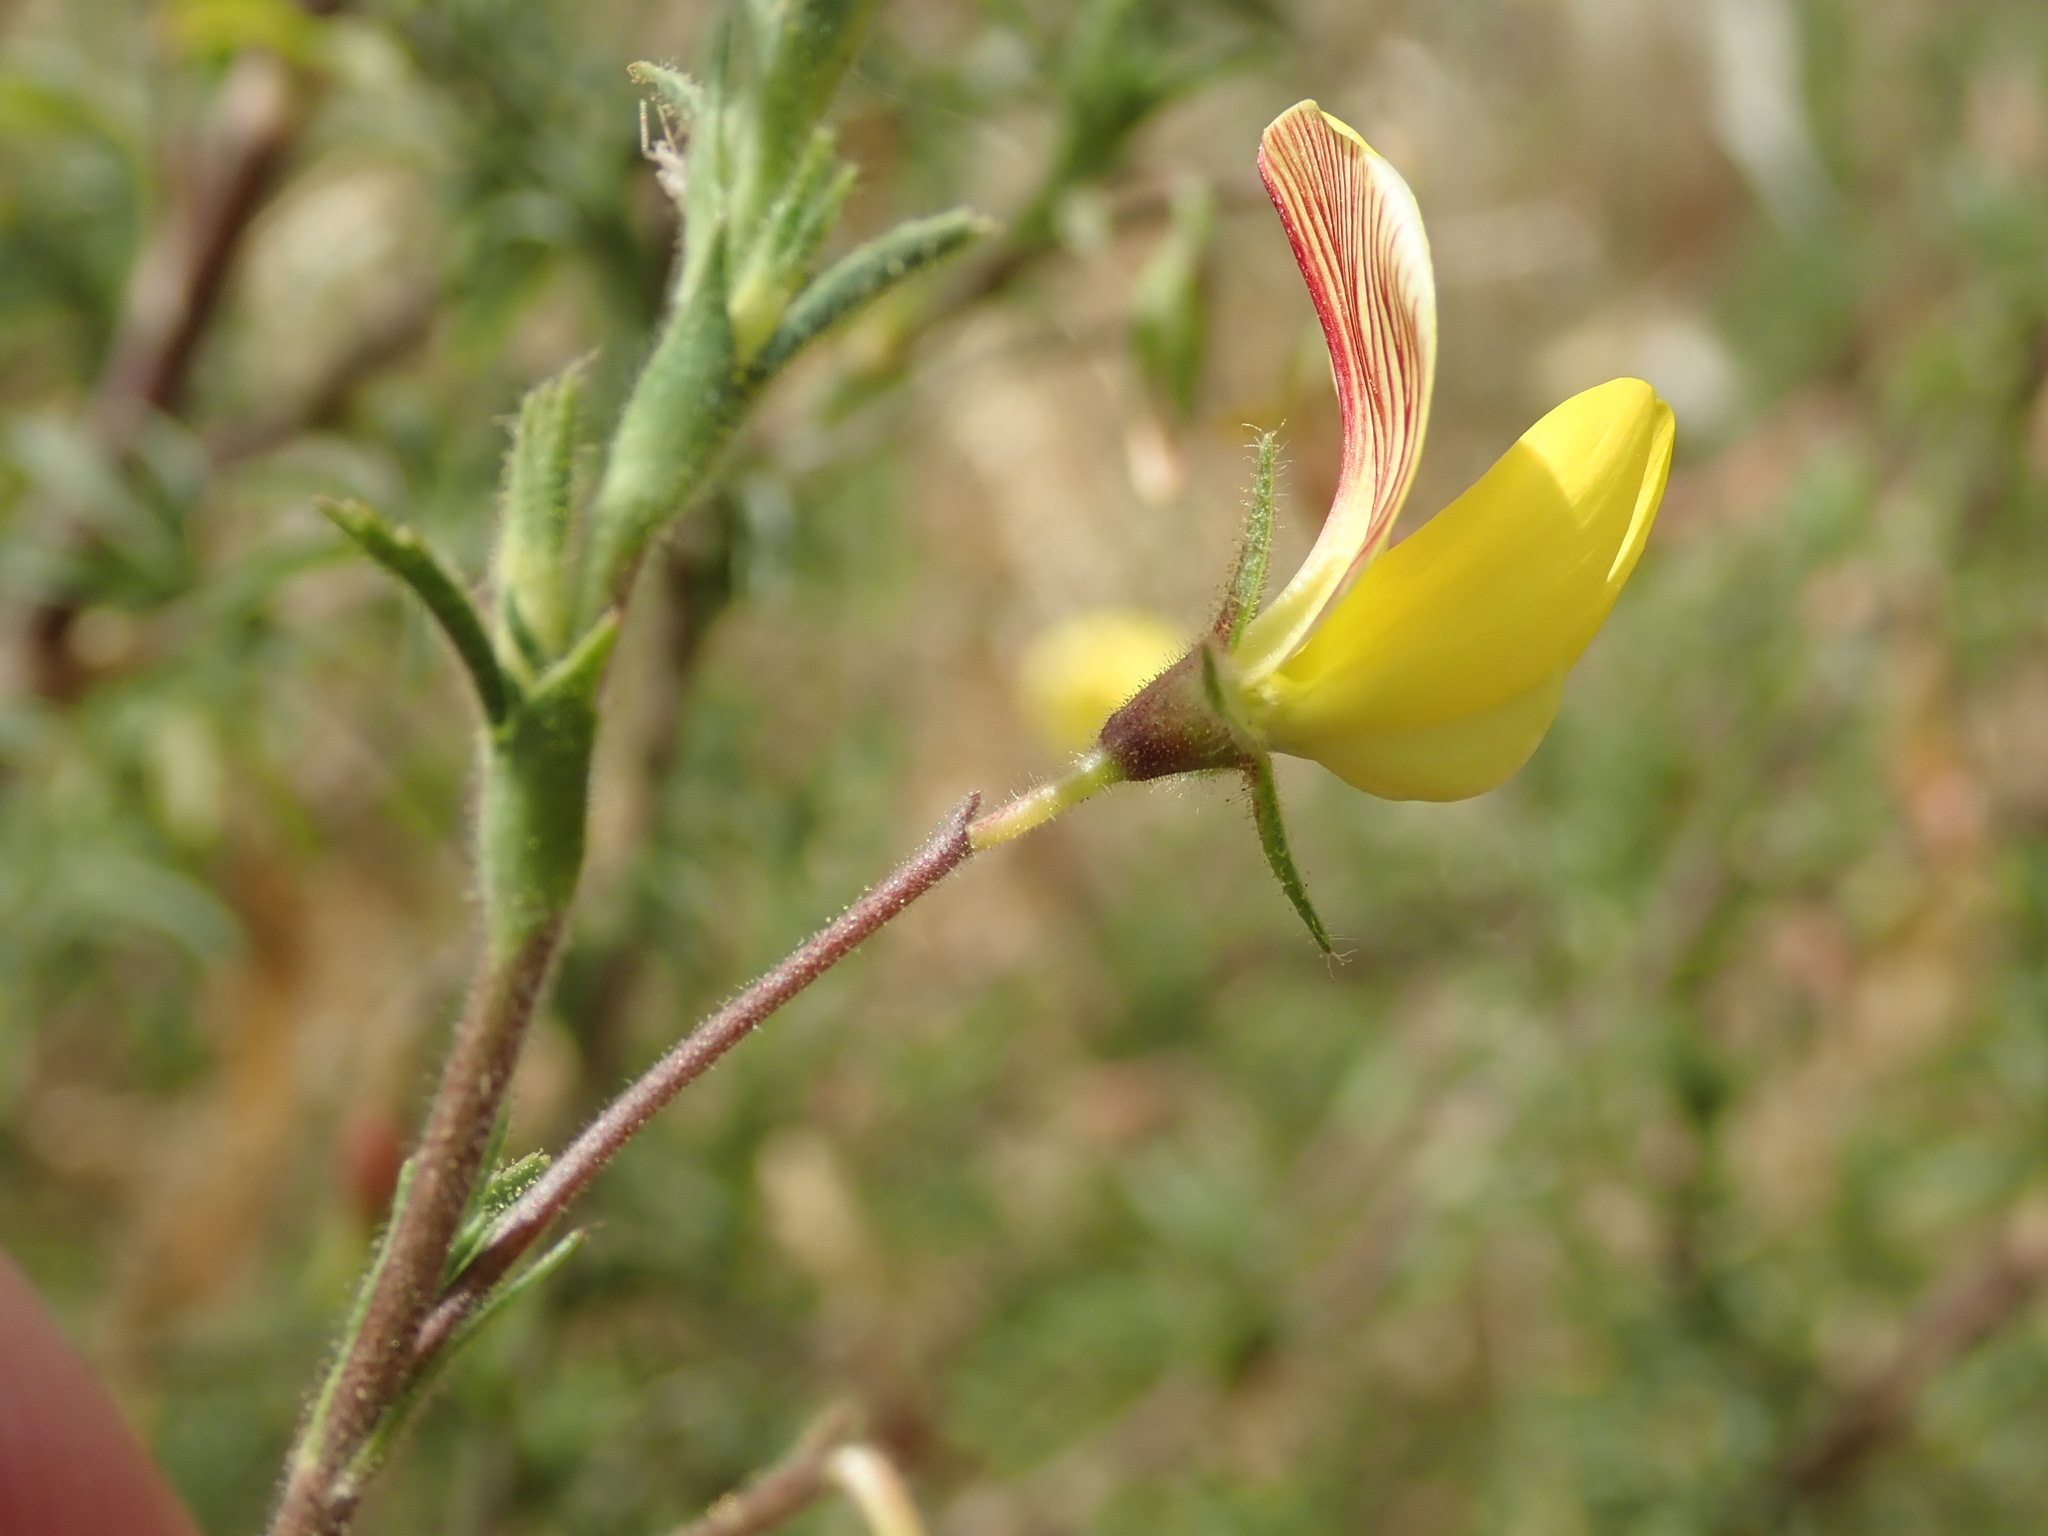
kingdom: Plantae
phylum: Tracheophyta
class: Magnoliopsida
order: Fabales
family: Fabaceae
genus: Ononis
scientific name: Ononis natrix
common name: Yellow restharrow
